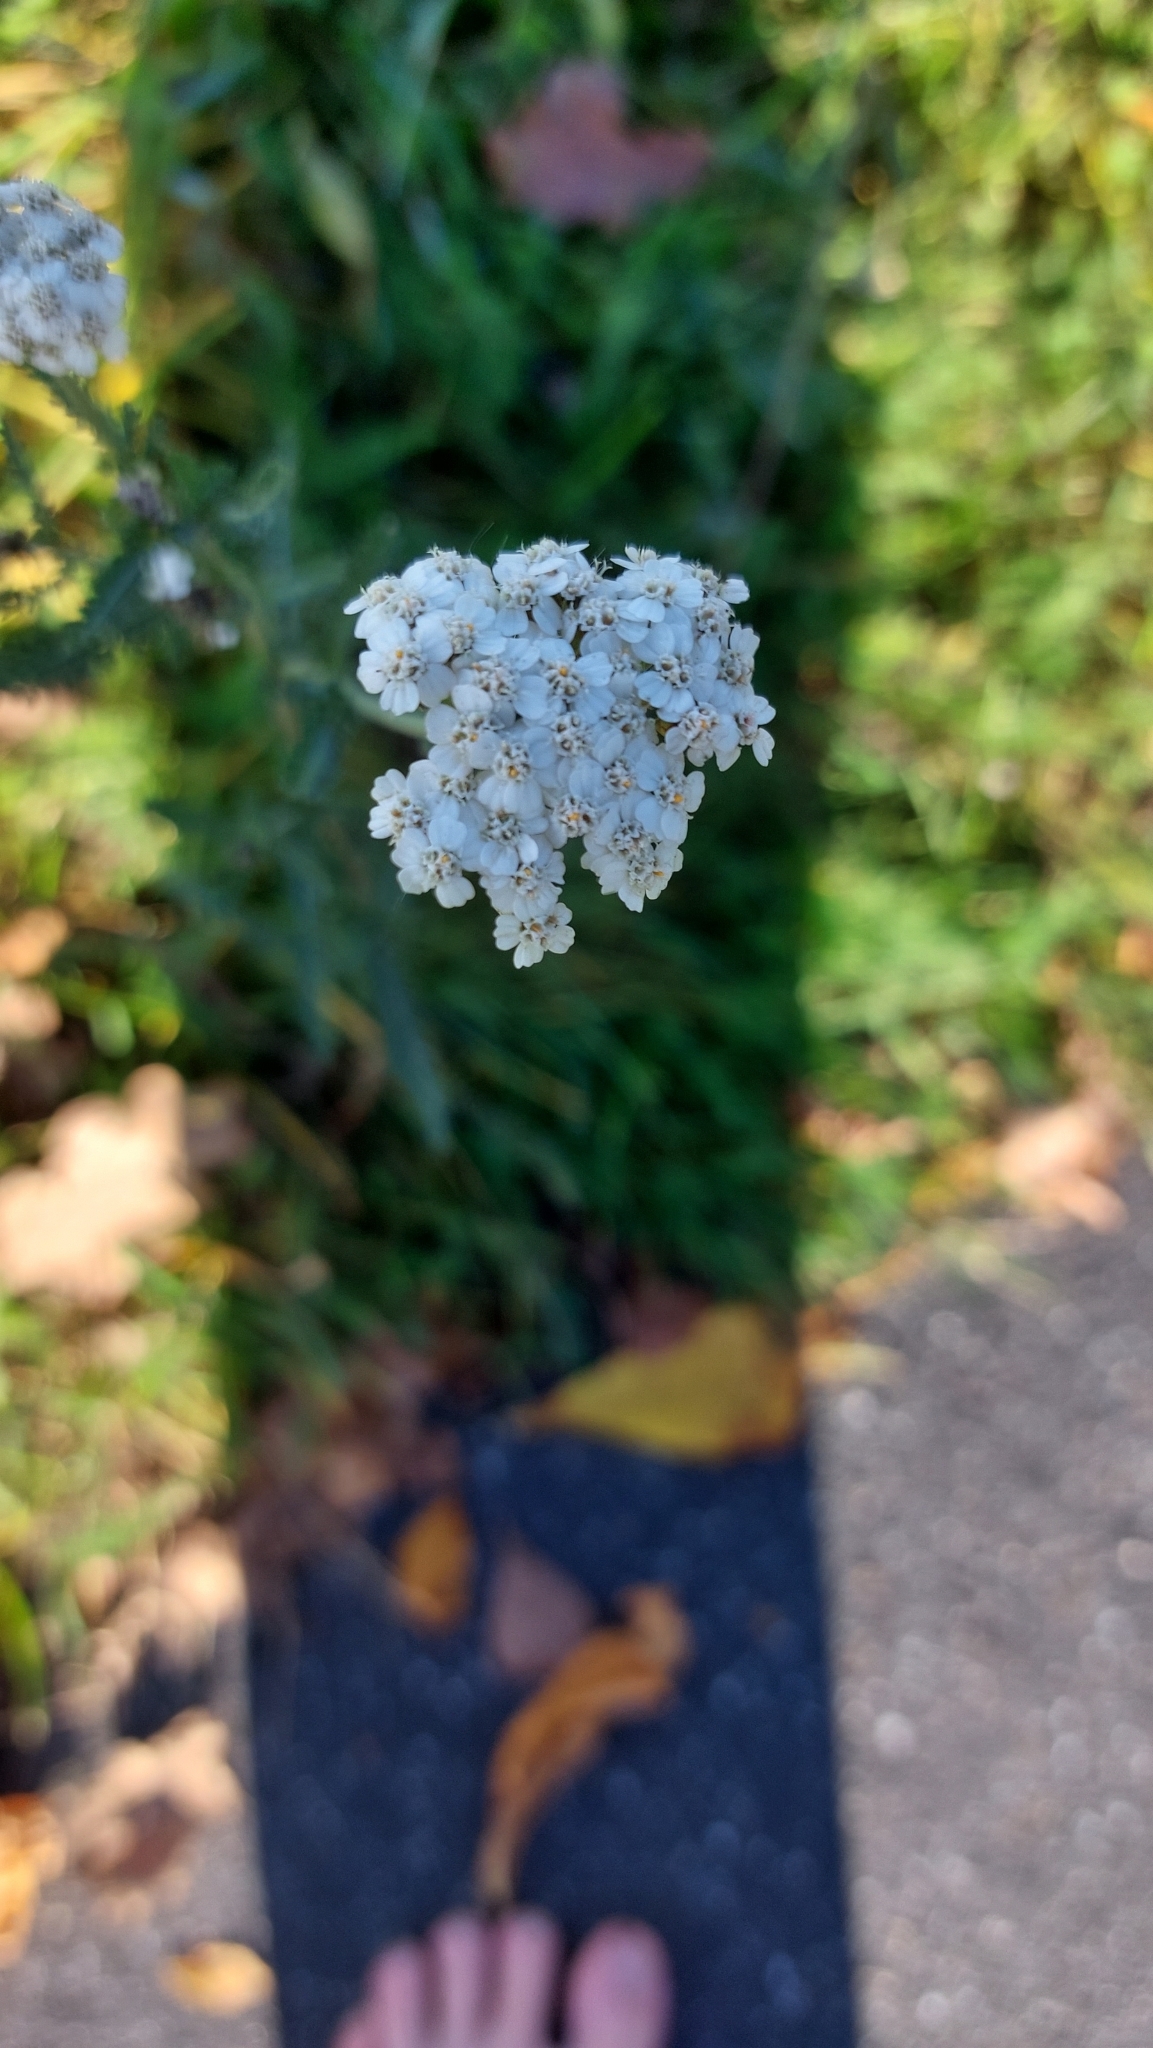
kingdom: Plantae
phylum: Tracheophyta
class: Magnoliopsida
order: Asterales
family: Asteraceae
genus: Achillea
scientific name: Achillea millefolium
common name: Yarrow
